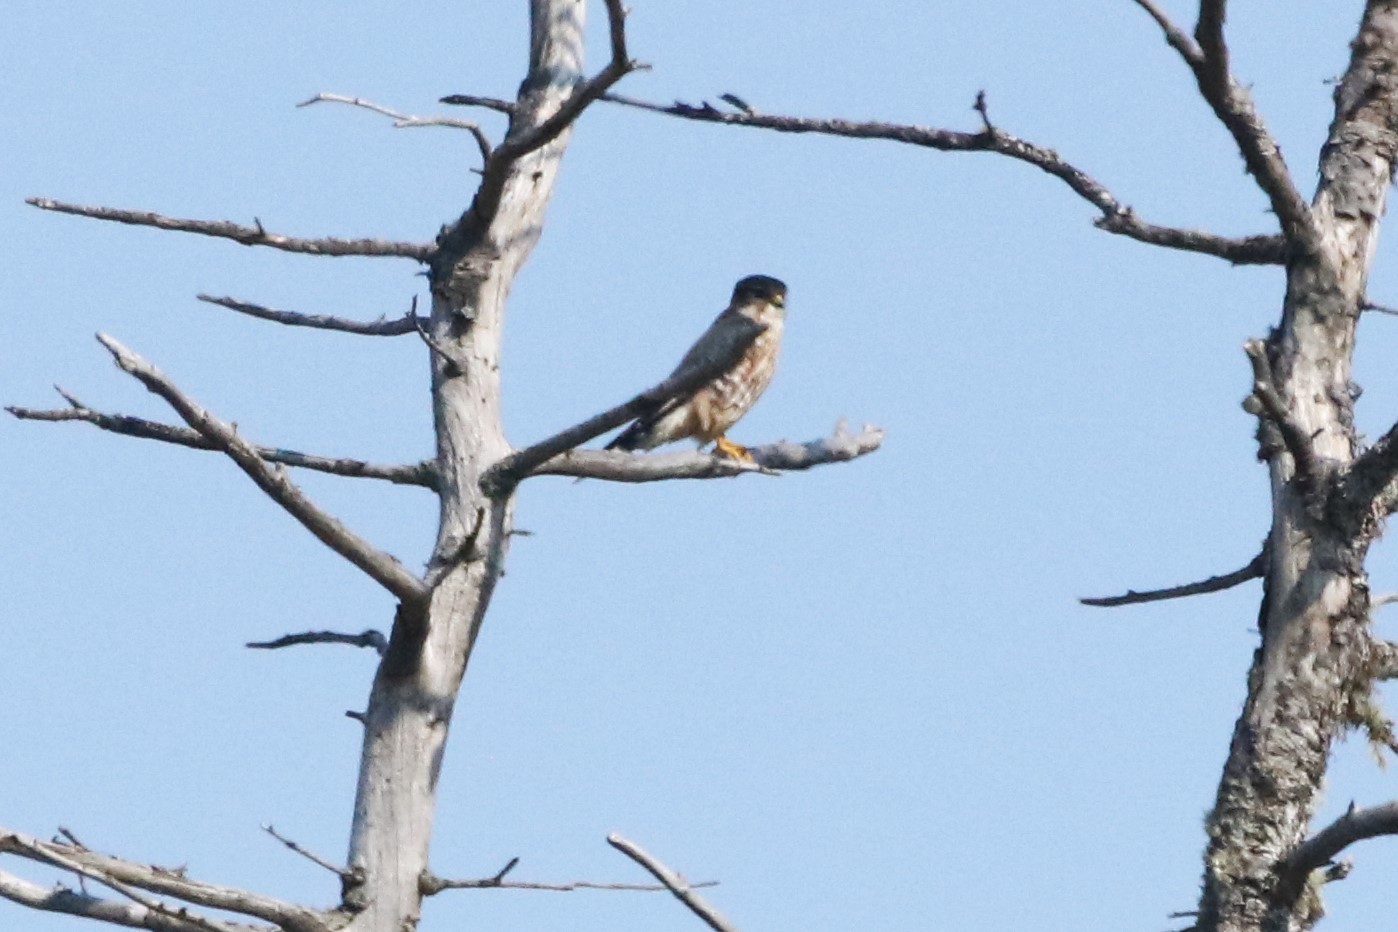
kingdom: Animalia
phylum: Chordata
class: Aves
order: Falconiformes
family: Falconidae
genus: Falco
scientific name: Falco columbarius
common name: Merlin
